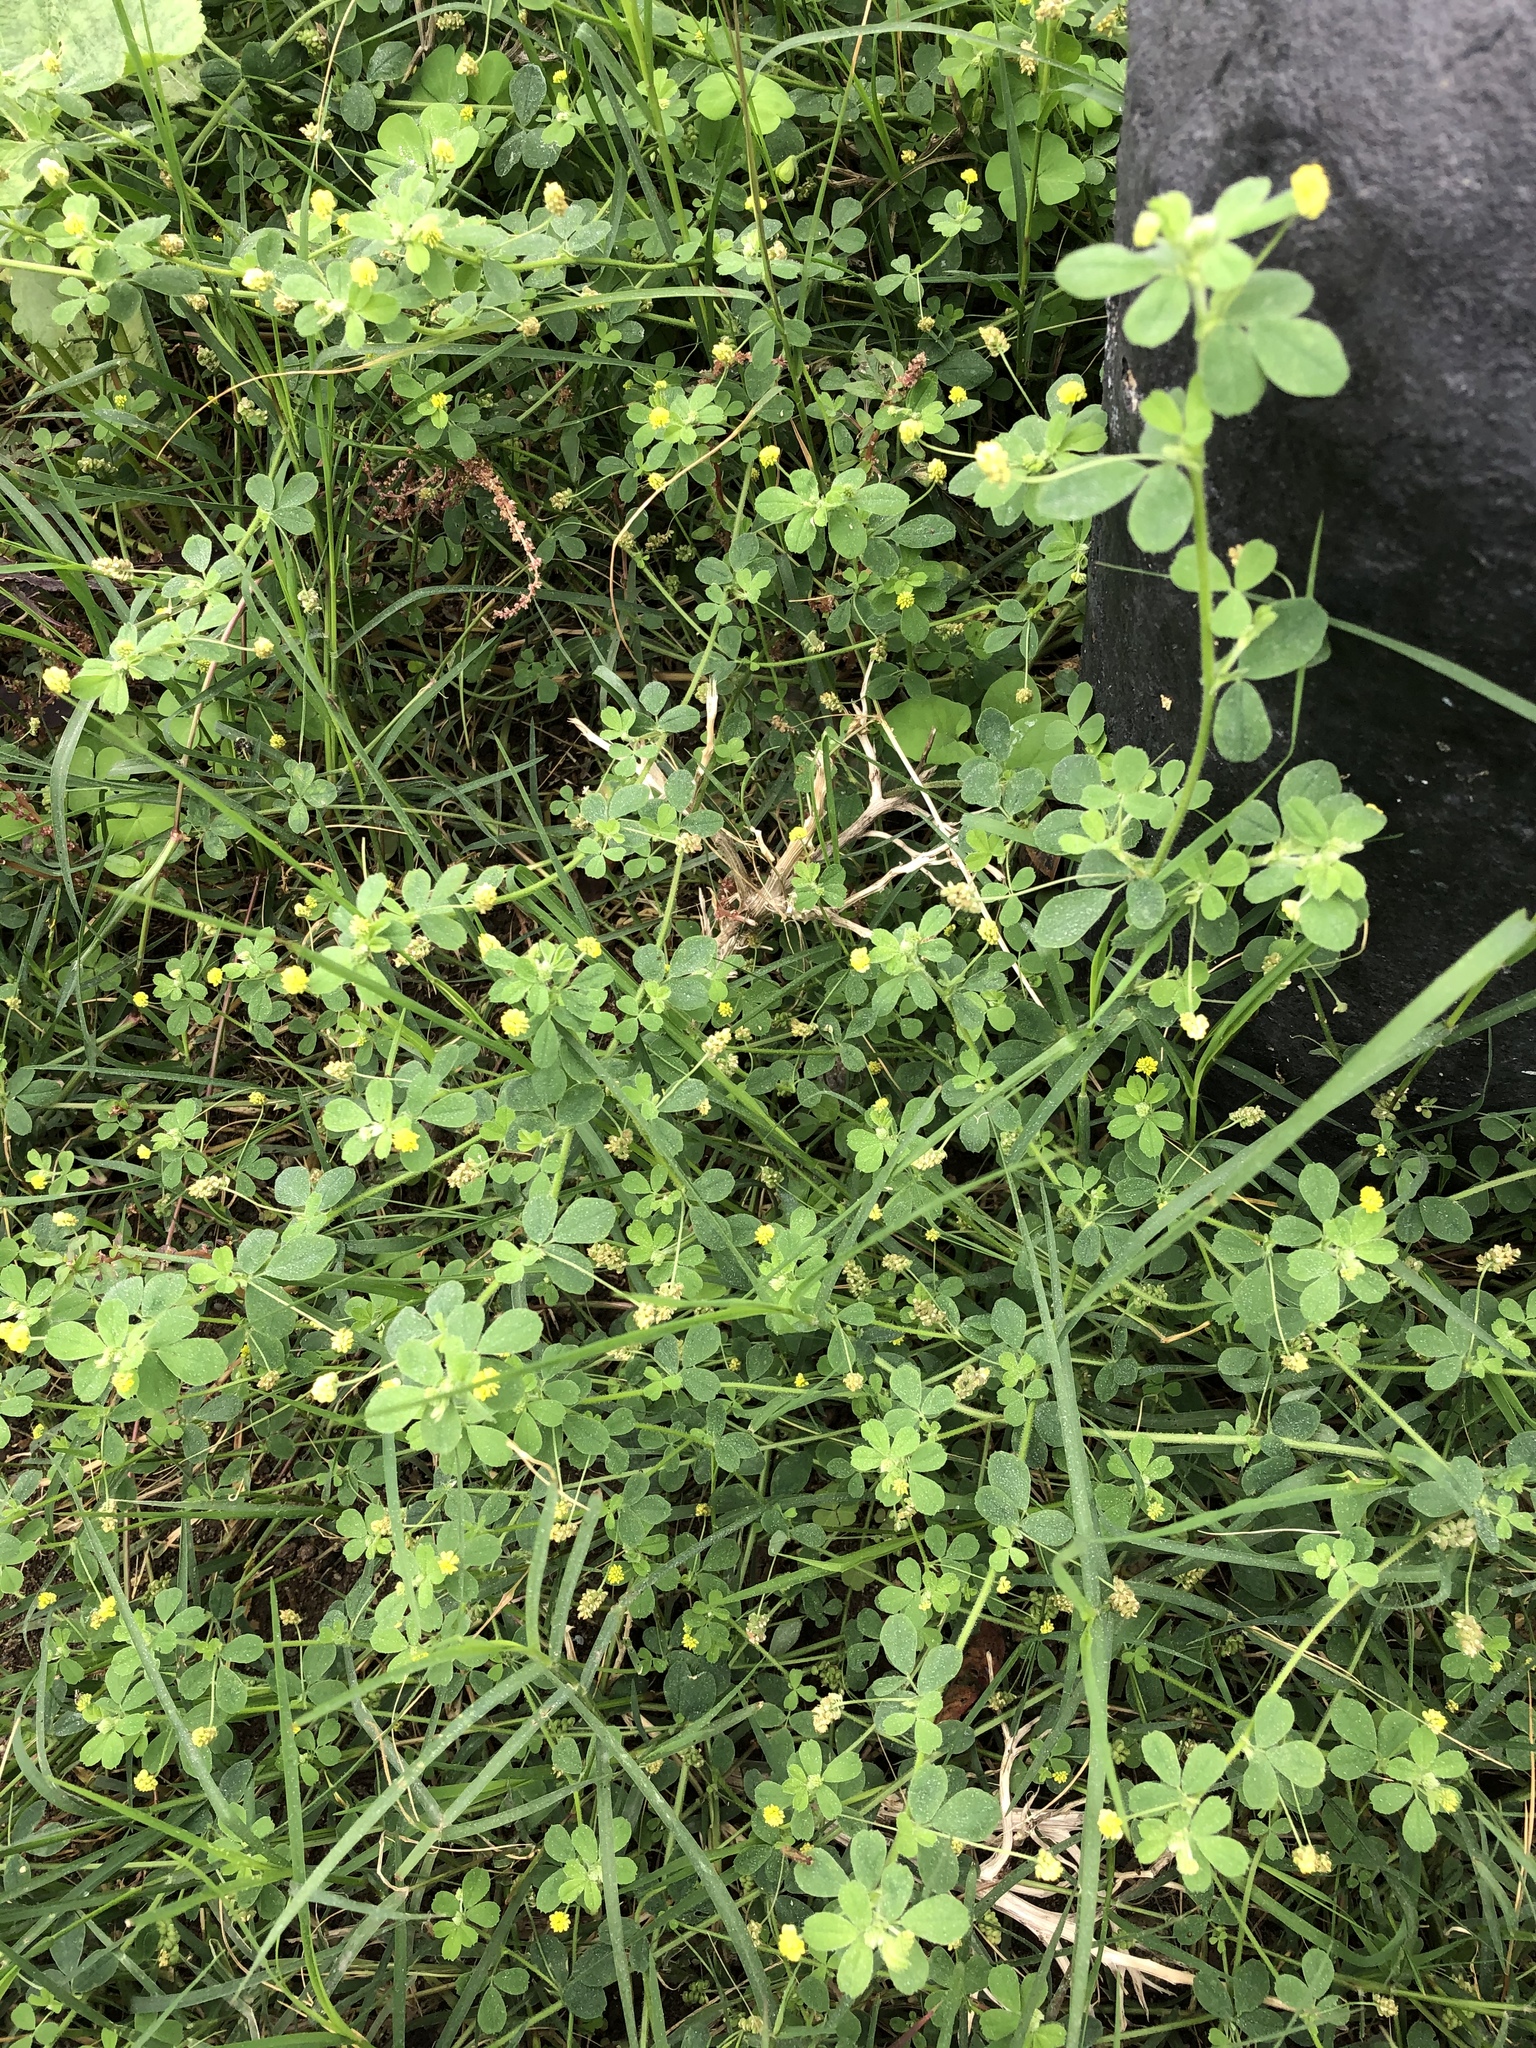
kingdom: Plantae
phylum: Tracheophyta
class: Magnoliopsida
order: Fabales
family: Fabaceae
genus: Medicago
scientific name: Medicago lupulina
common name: Black medick
